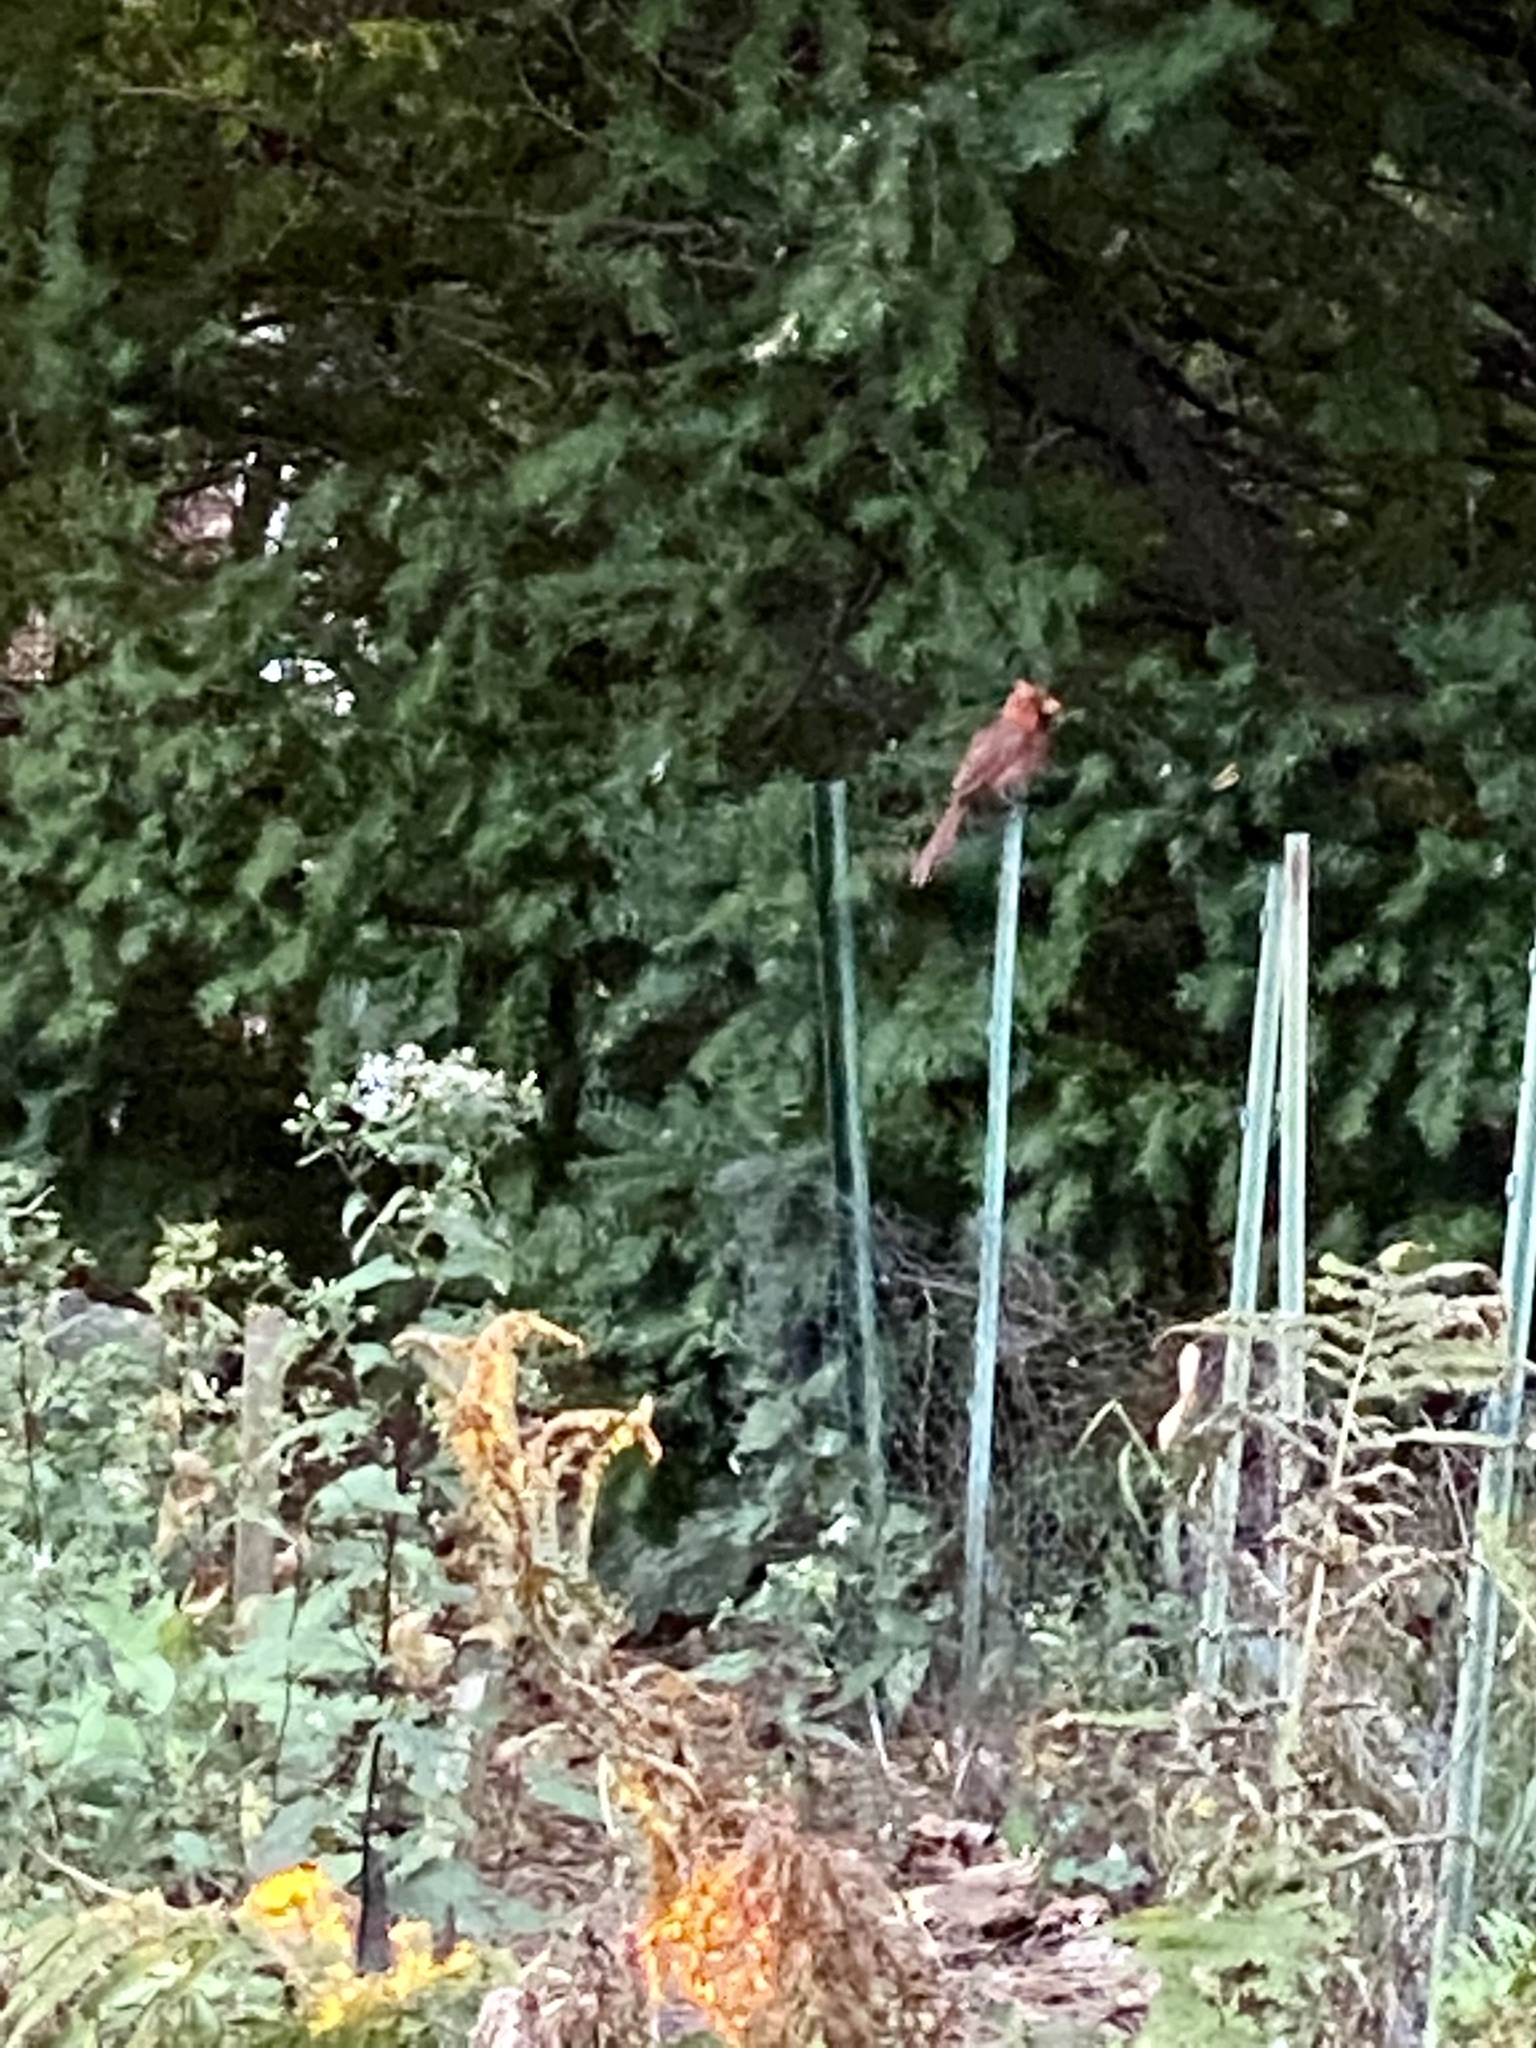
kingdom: Animalia
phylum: Chordata
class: Aves
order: Passeriformes
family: Cardinalidae
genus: Cardinalis
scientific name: Cardinalis cardinalis
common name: Northern cardinal
